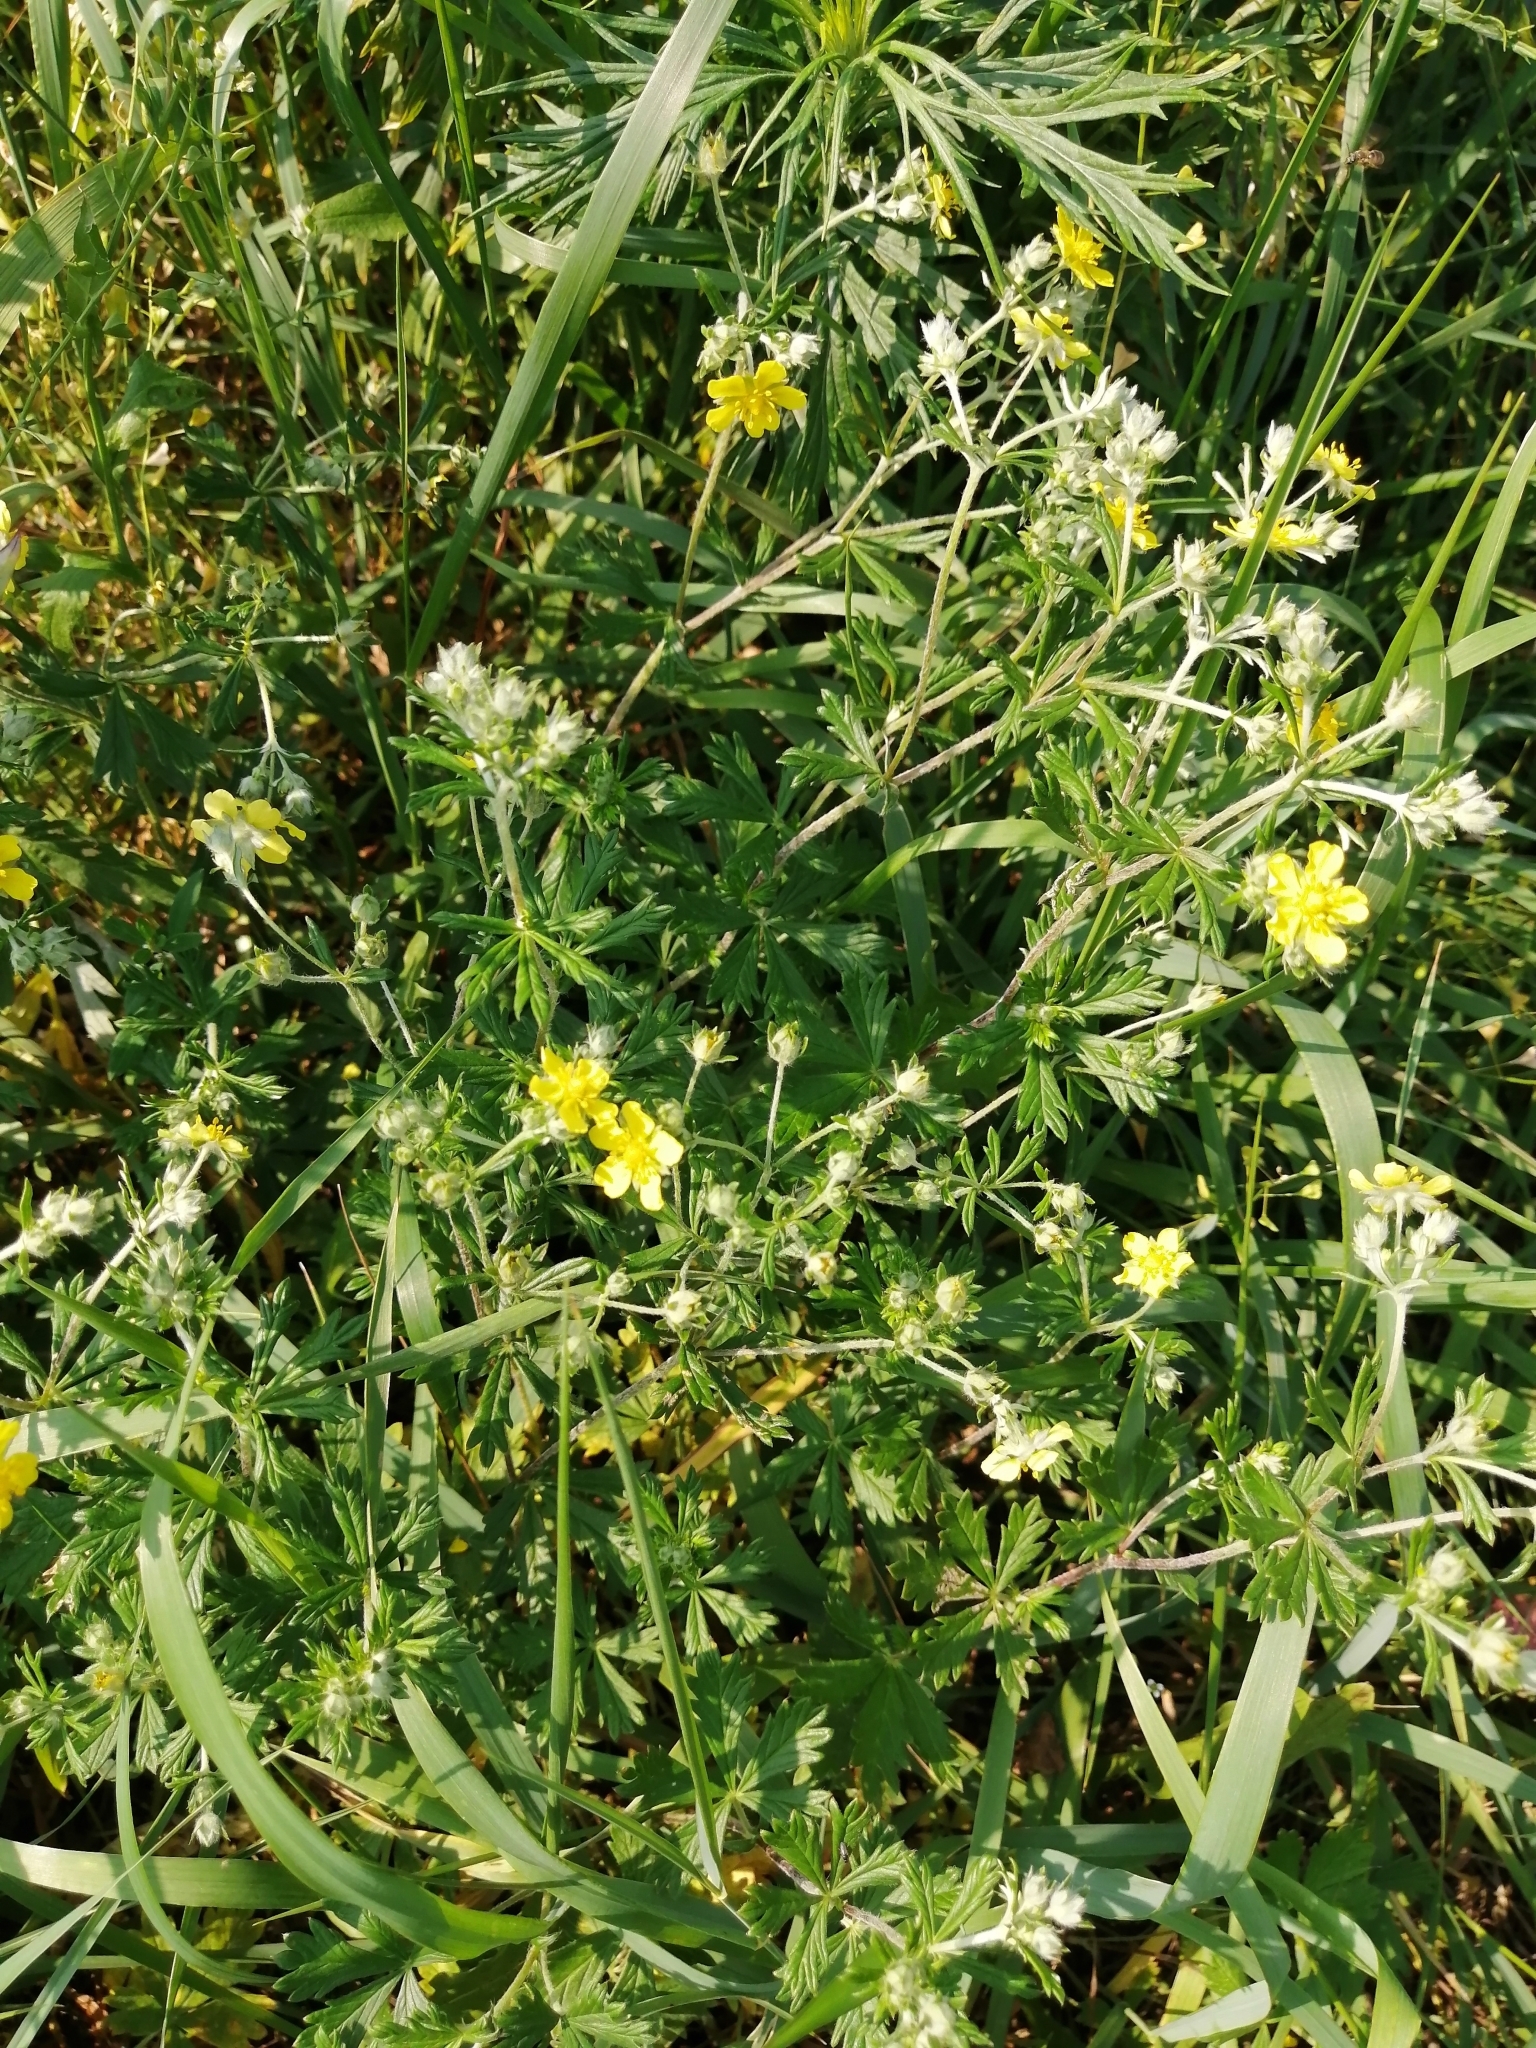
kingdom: Plantae
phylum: Tracheophyta
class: Magnoliopsida
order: Rosales
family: Rosaceae
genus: Potentilla
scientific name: Potentilla argentea
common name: Hoary cinquefoil
